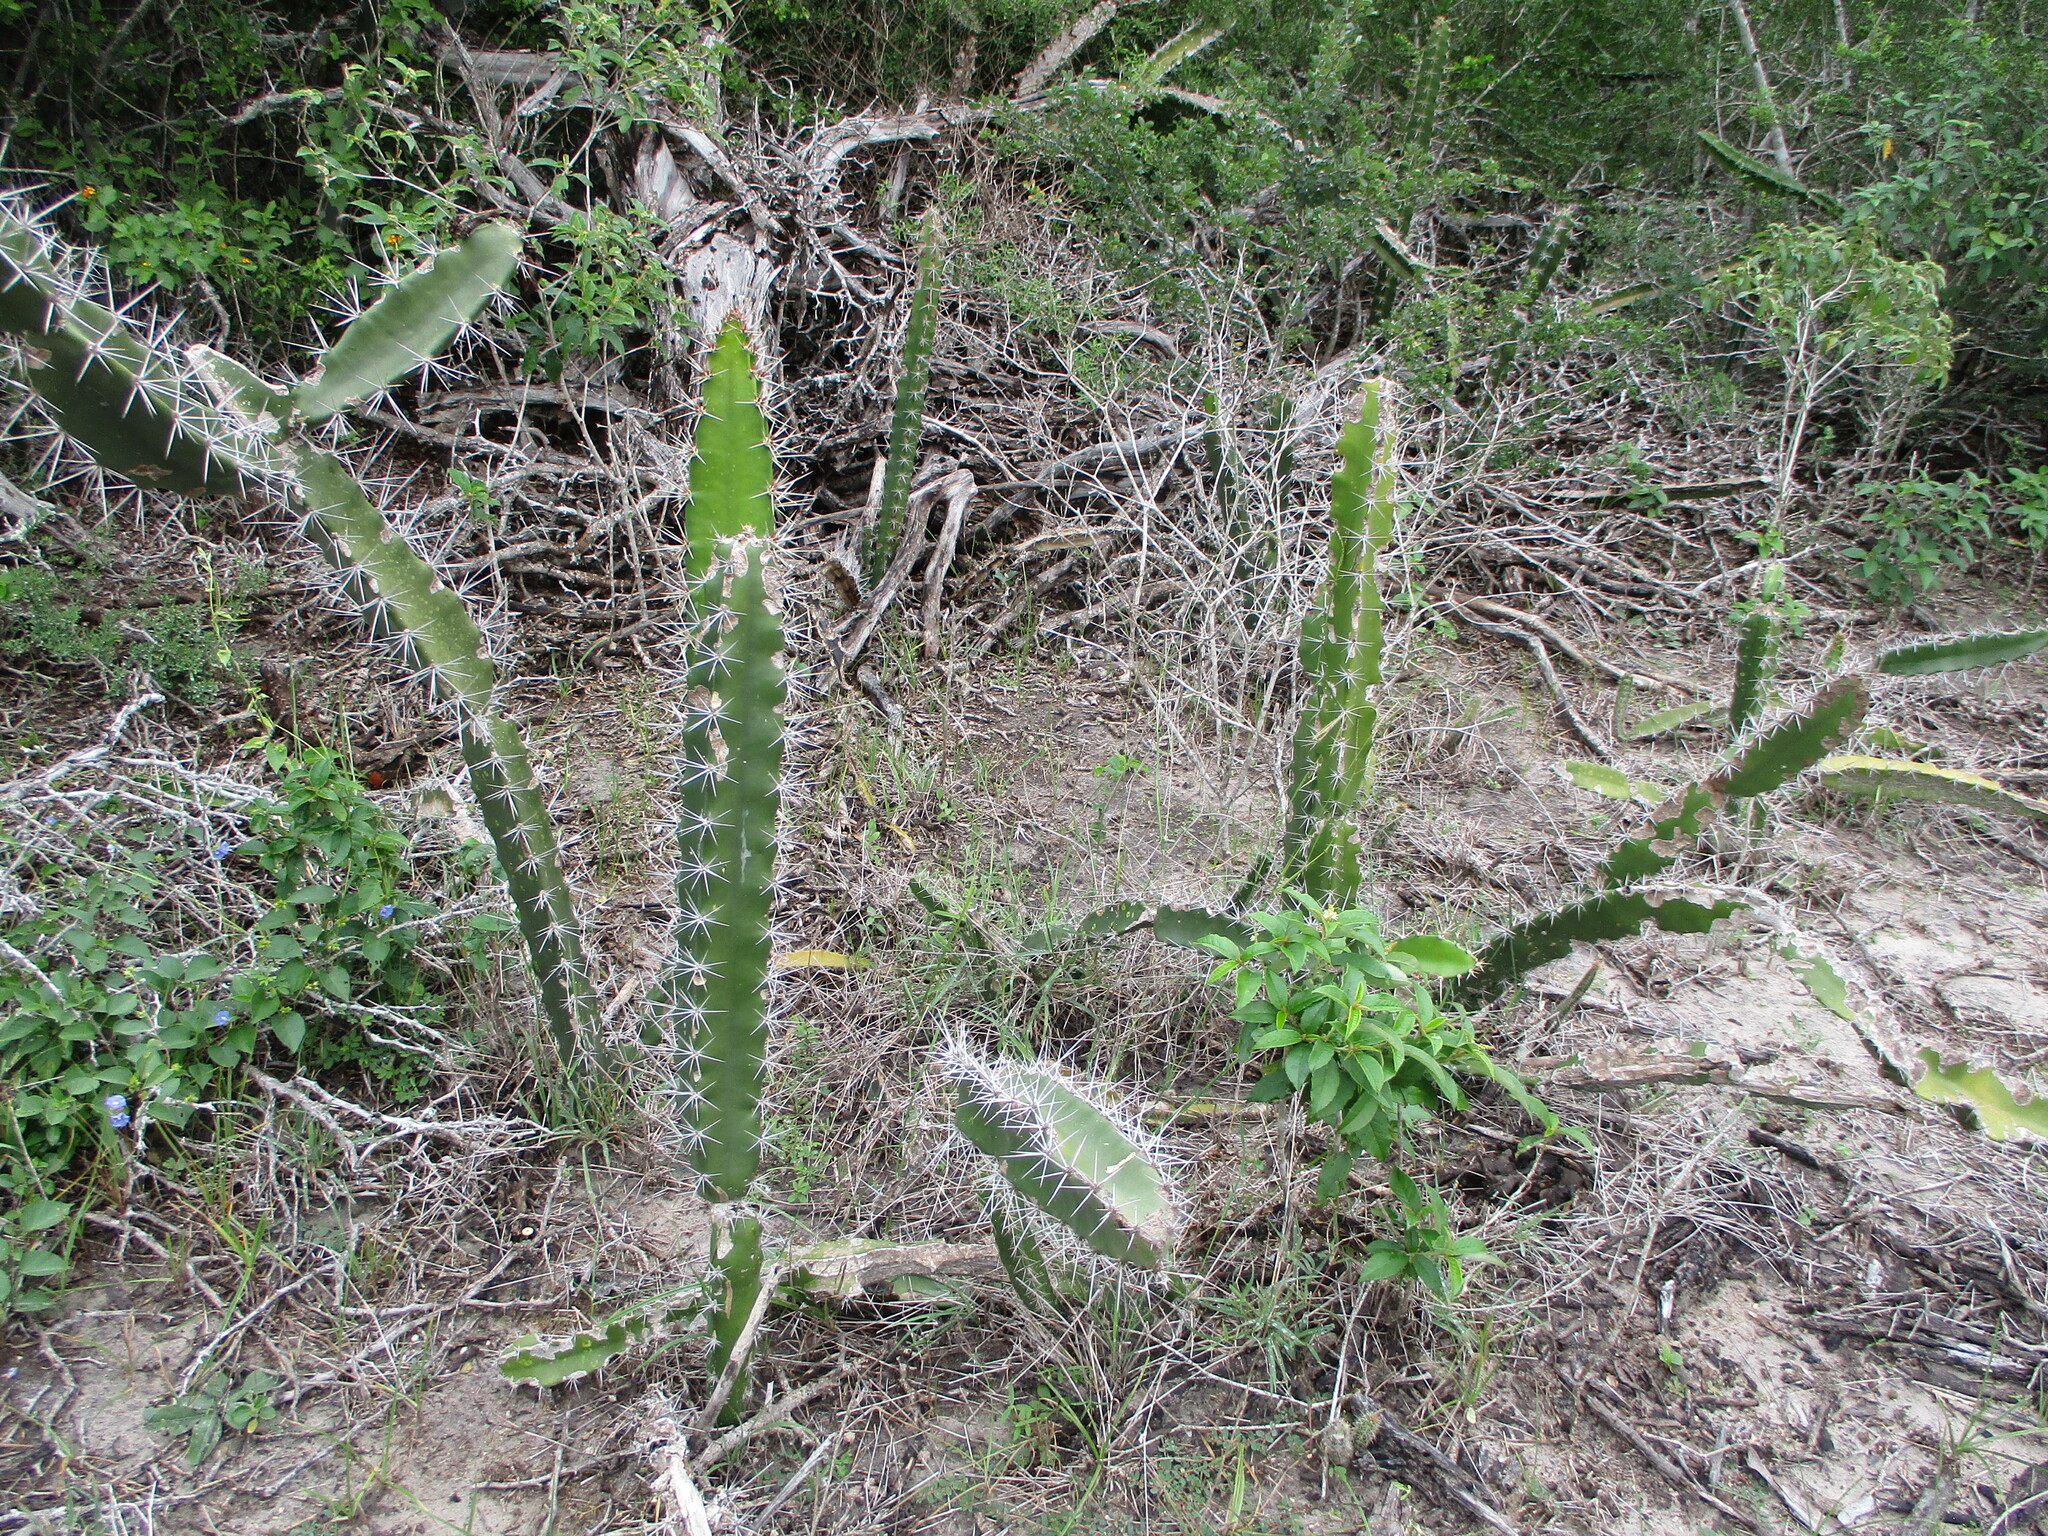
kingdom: Plantae
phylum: Tracheophyta
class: Magnoliopsida
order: Caryophyllales
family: Cactaceae
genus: Acanthocereus
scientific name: Acanthocereus tetragonus
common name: Triangle cactus
